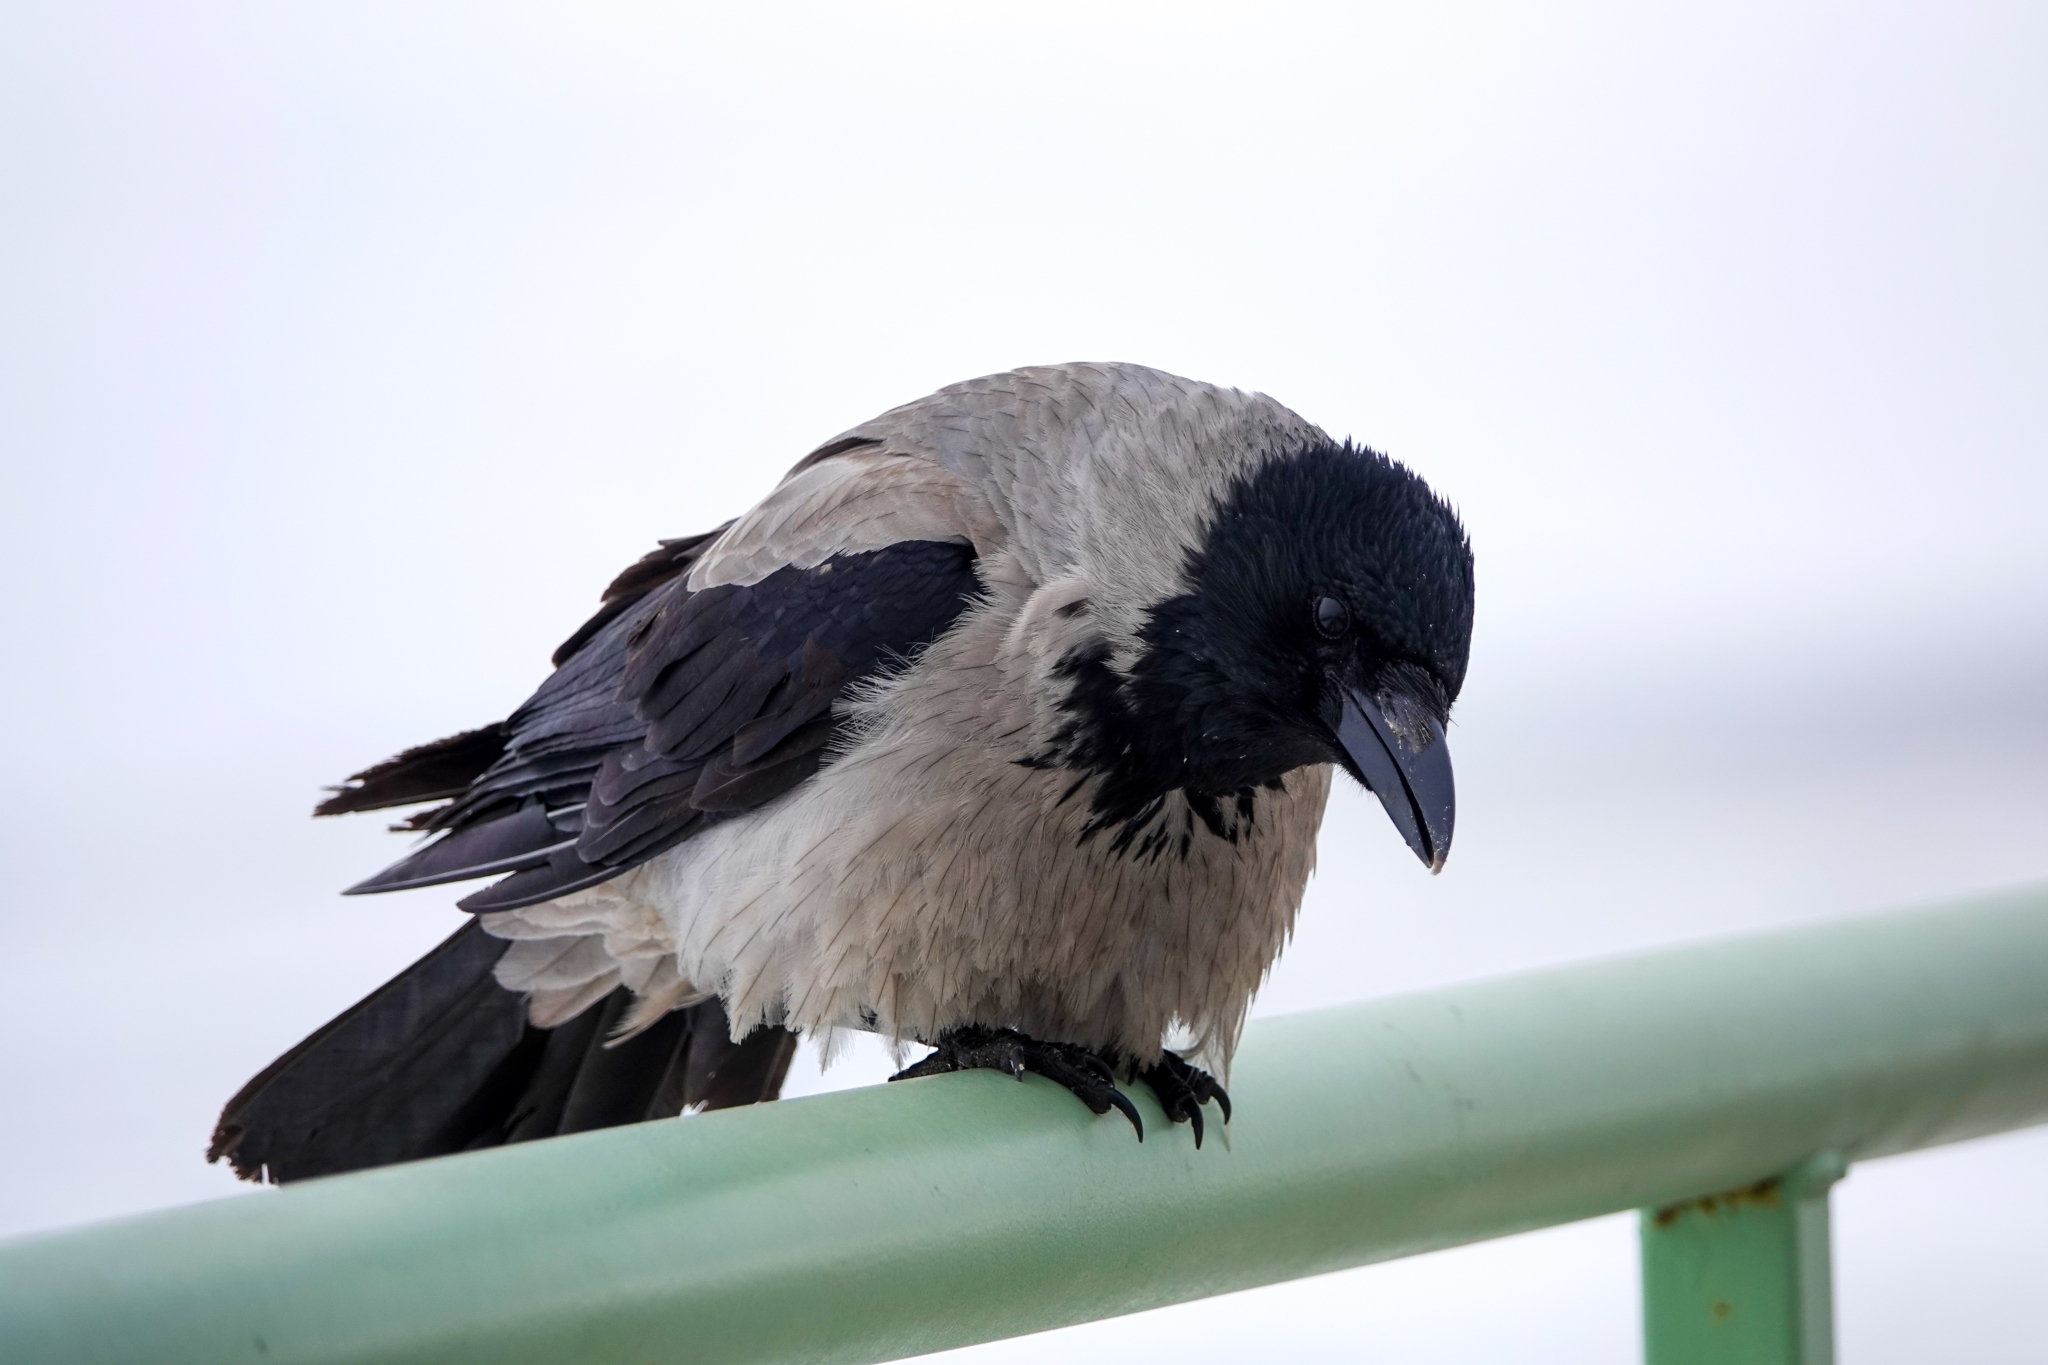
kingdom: Animalia
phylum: Chordata
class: Aves
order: Passeriformes
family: Corvidae
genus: Corvus
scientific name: Corvus cornix
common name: Hooded crow
